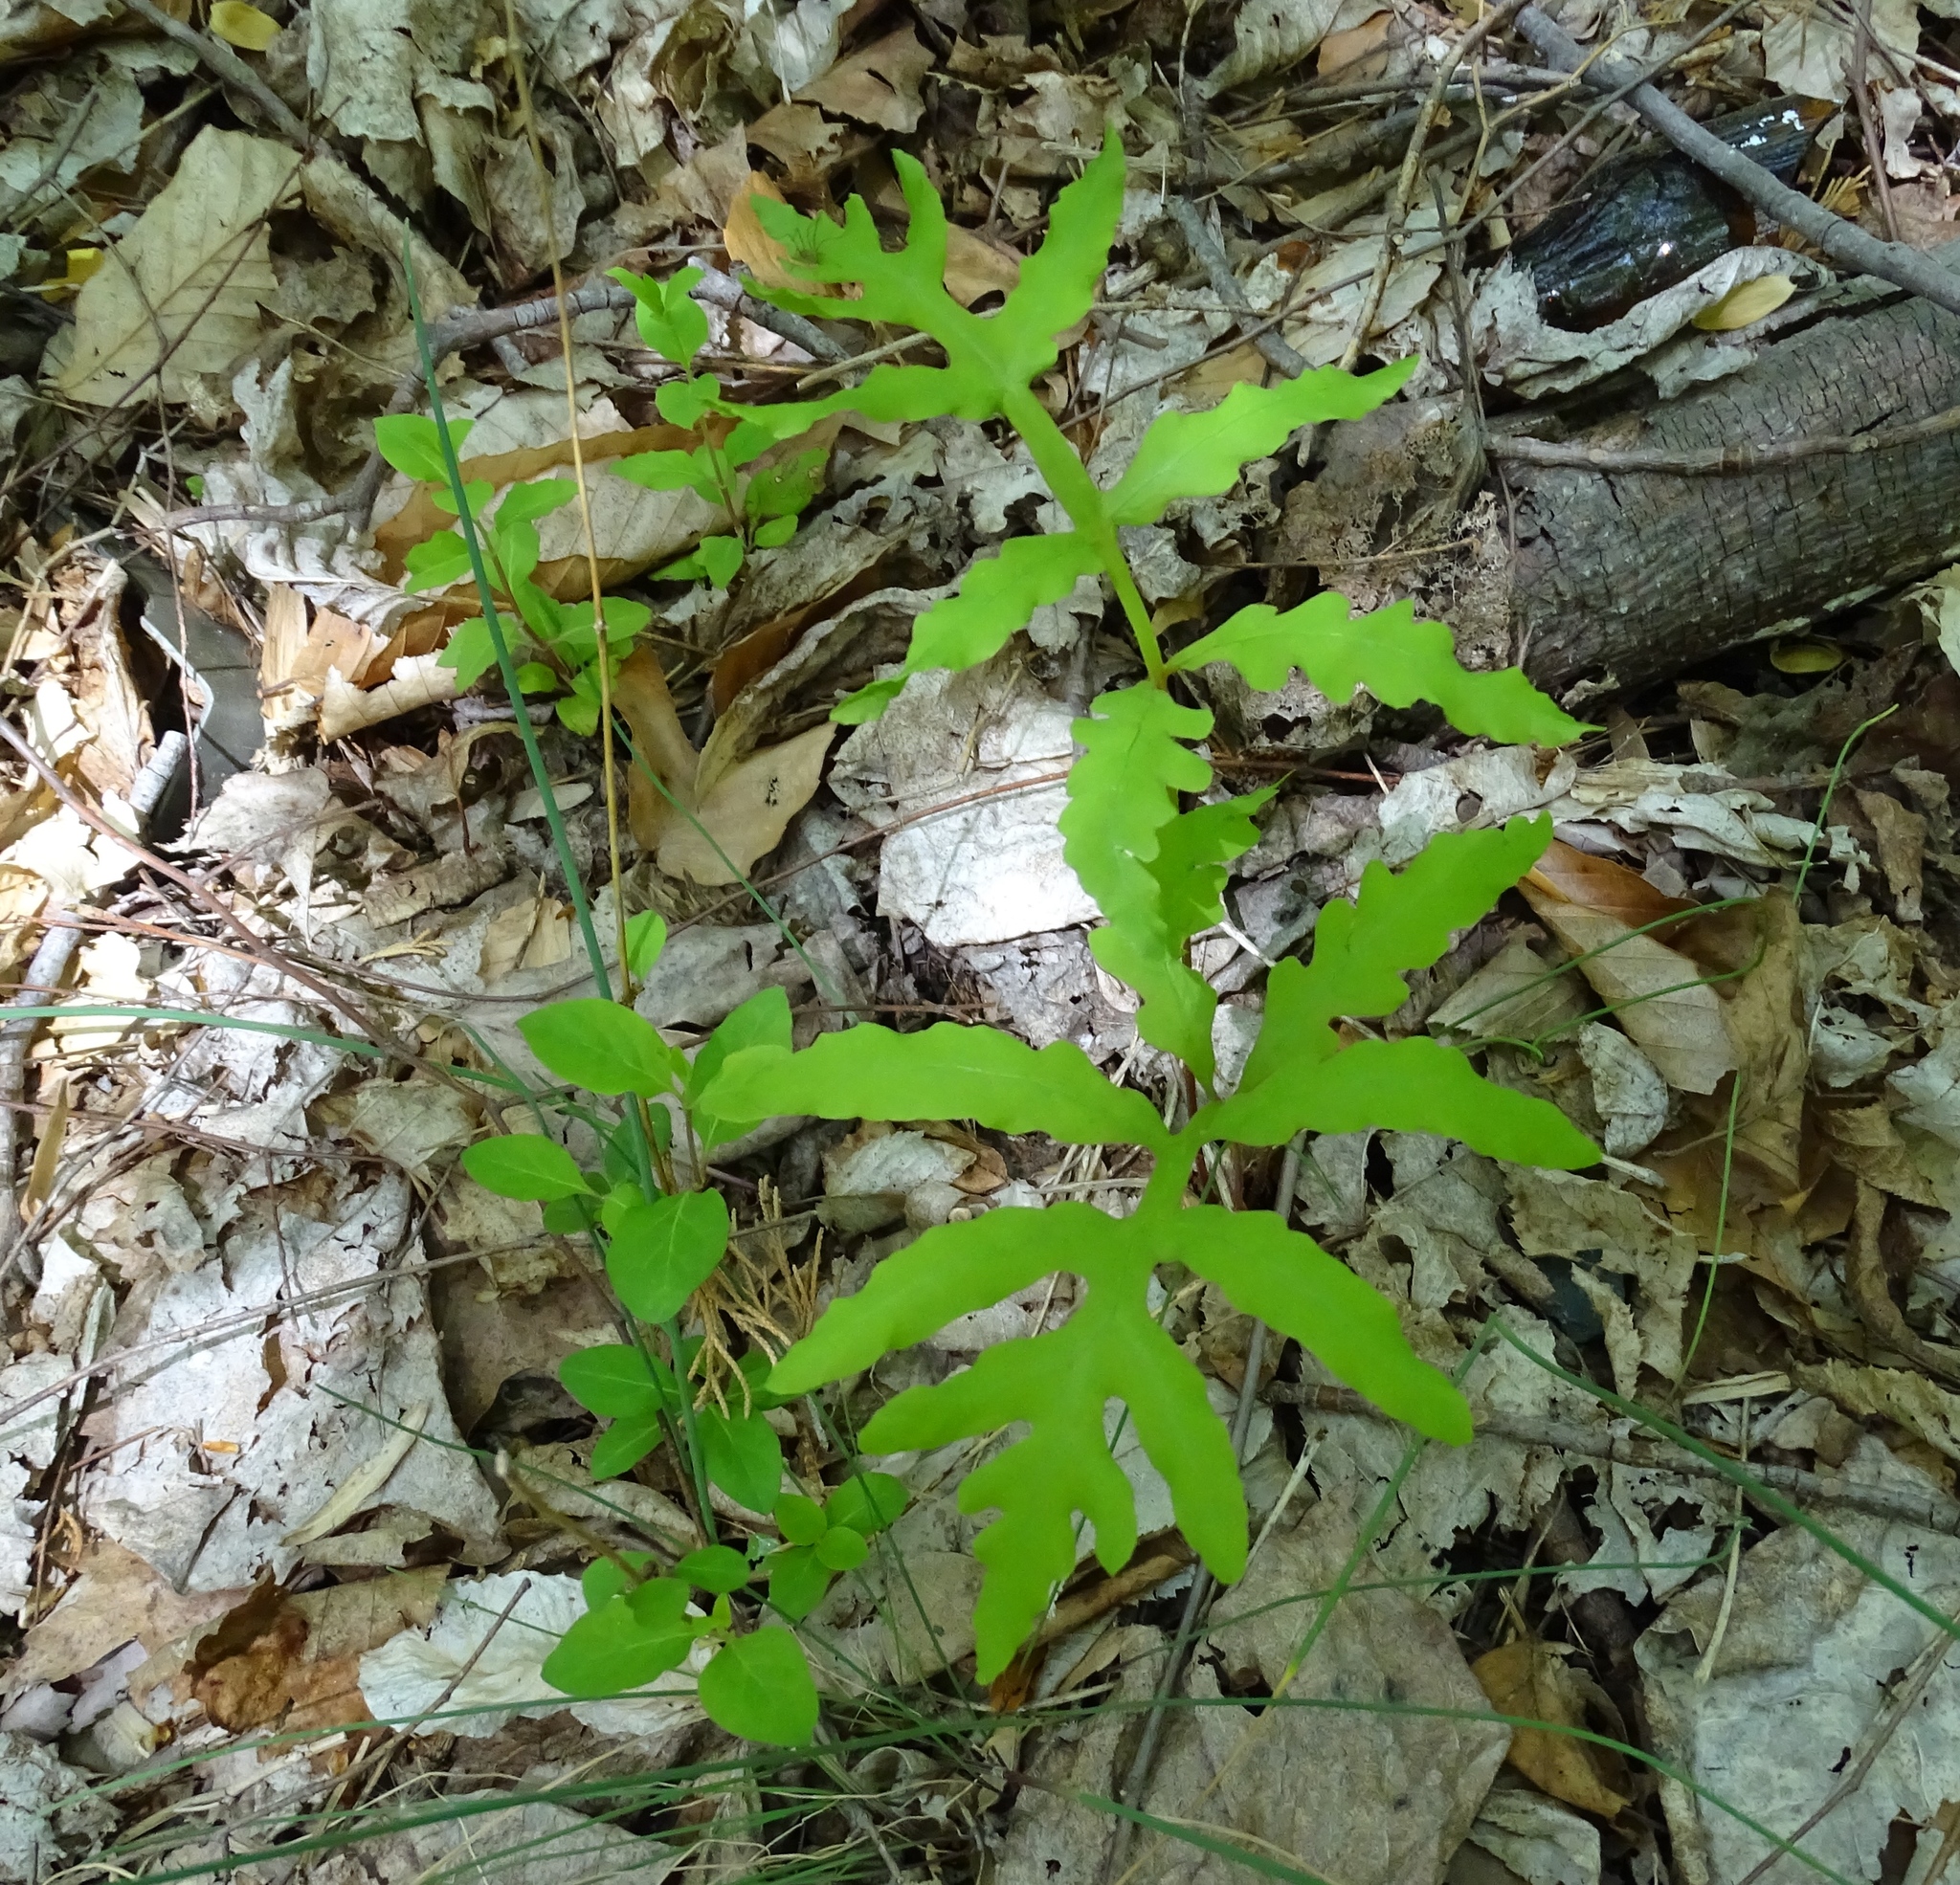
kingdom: Plantae
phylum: Tracheophyta
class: Polypodiopsida
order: Polypodiales
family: Onocleaceae
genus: Onoclea
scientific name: Onoclea sensibilis
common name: Sensitive fern
